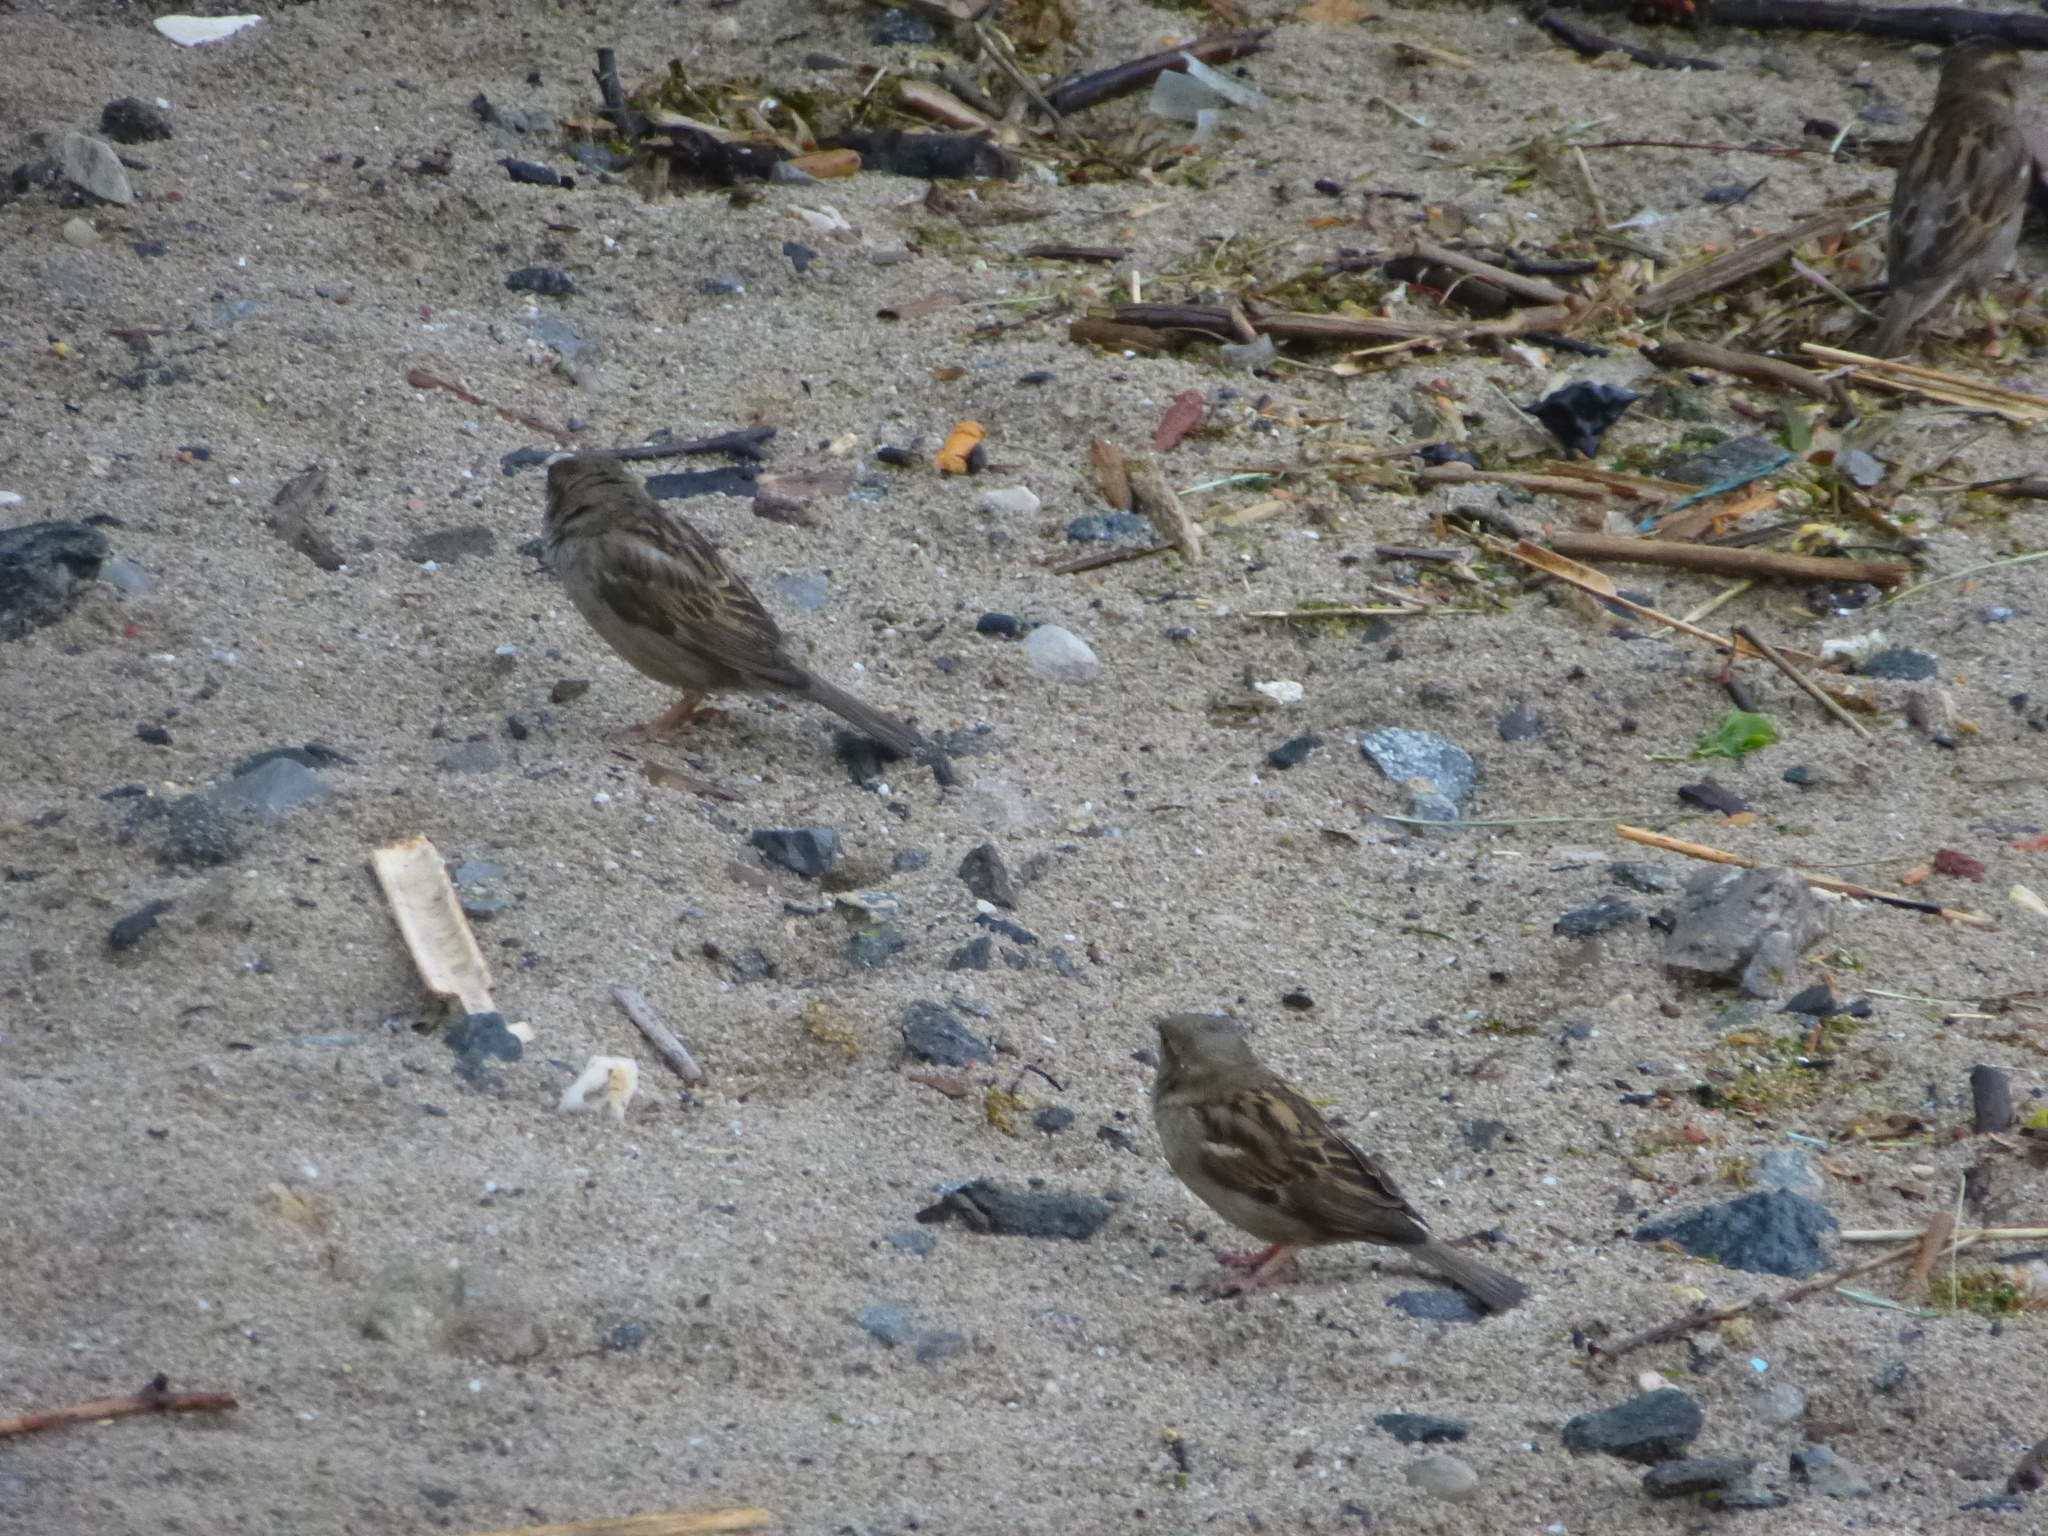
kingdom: Animalia
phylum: Chordata
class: Aves
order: Passeriformes
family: Passeridae
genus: Passer
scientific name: Passer domesticus
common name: House sparrow
